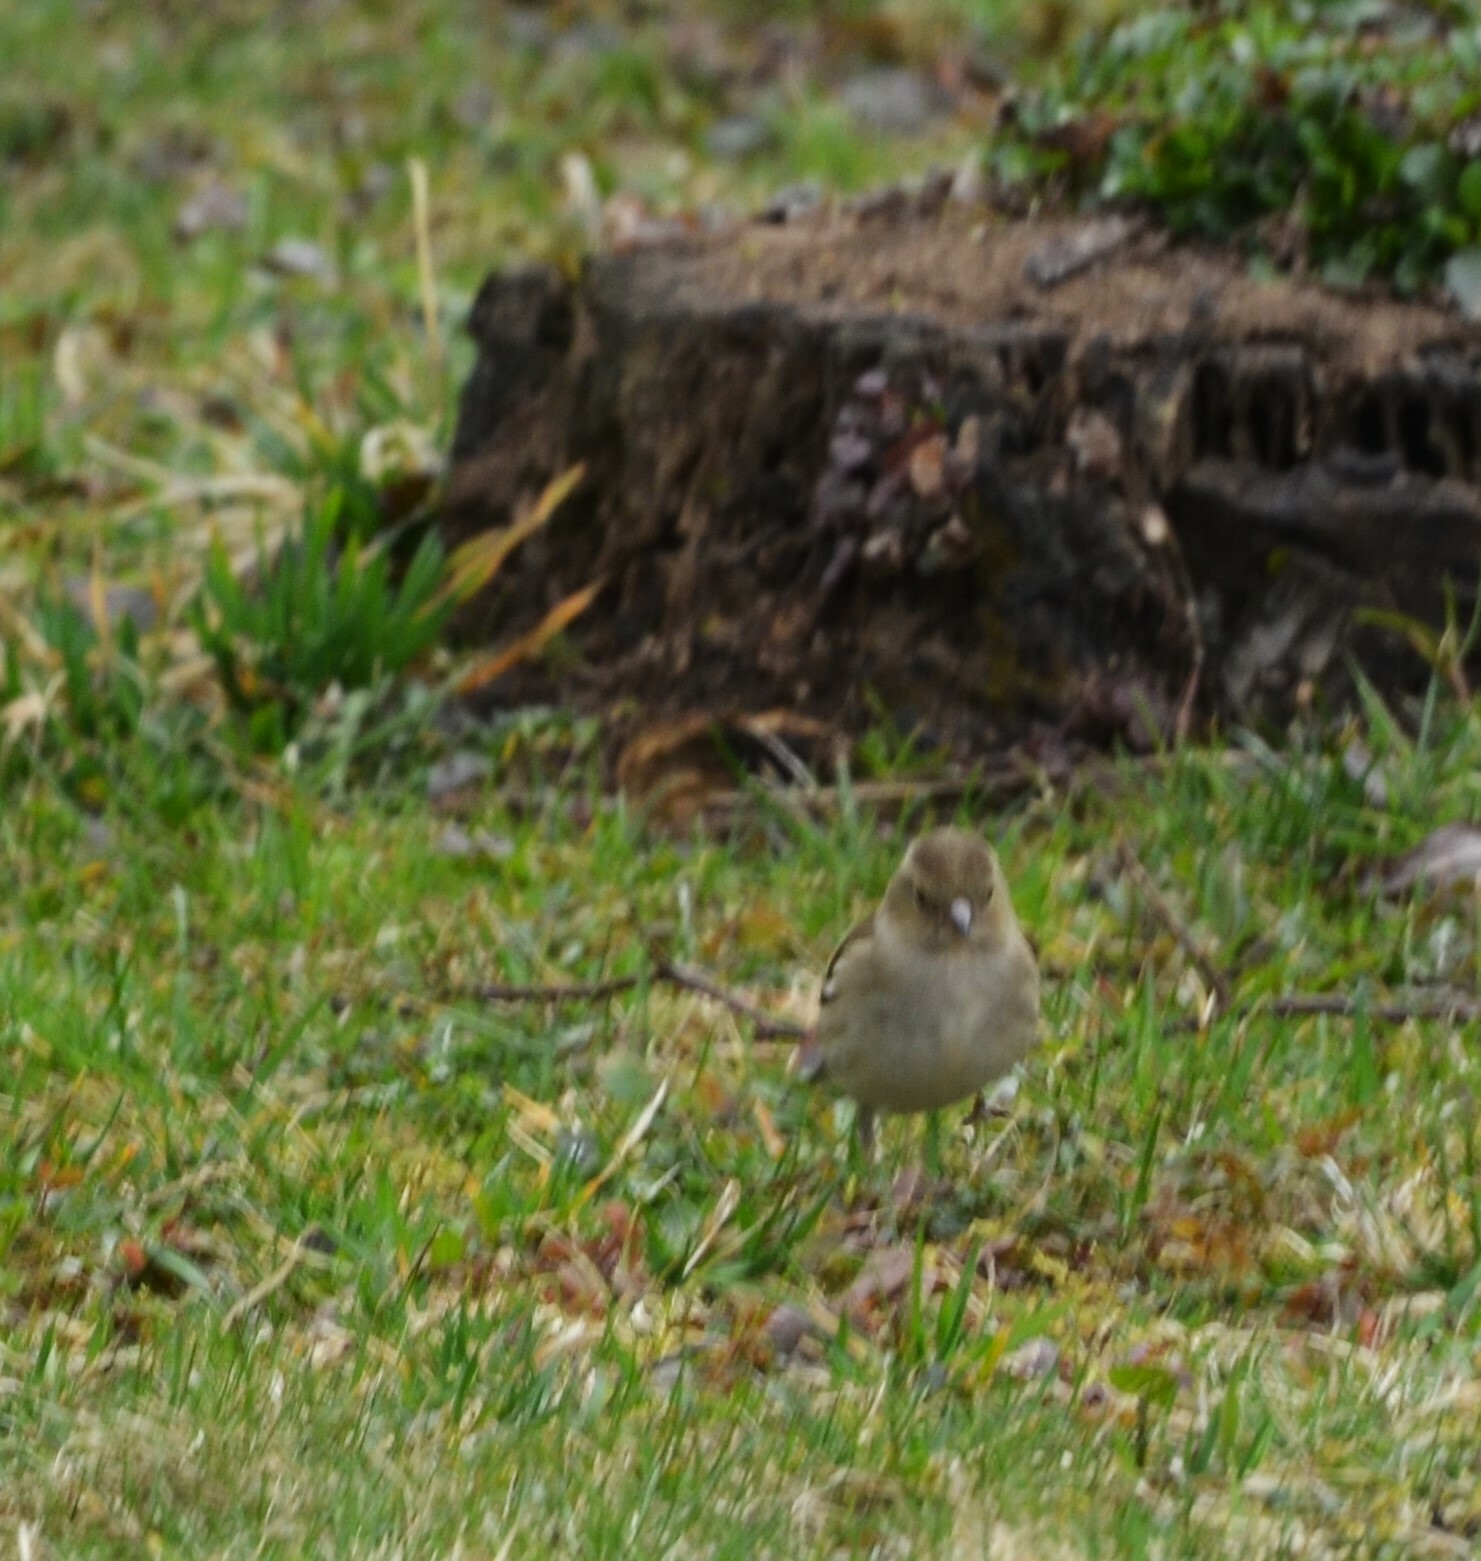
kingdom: Animalia
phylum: Chordata
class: Aves
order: Passeriformes
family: Fringillidae
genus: Fringilla
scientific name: Fringilla coelebs
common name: Common chaffinch
